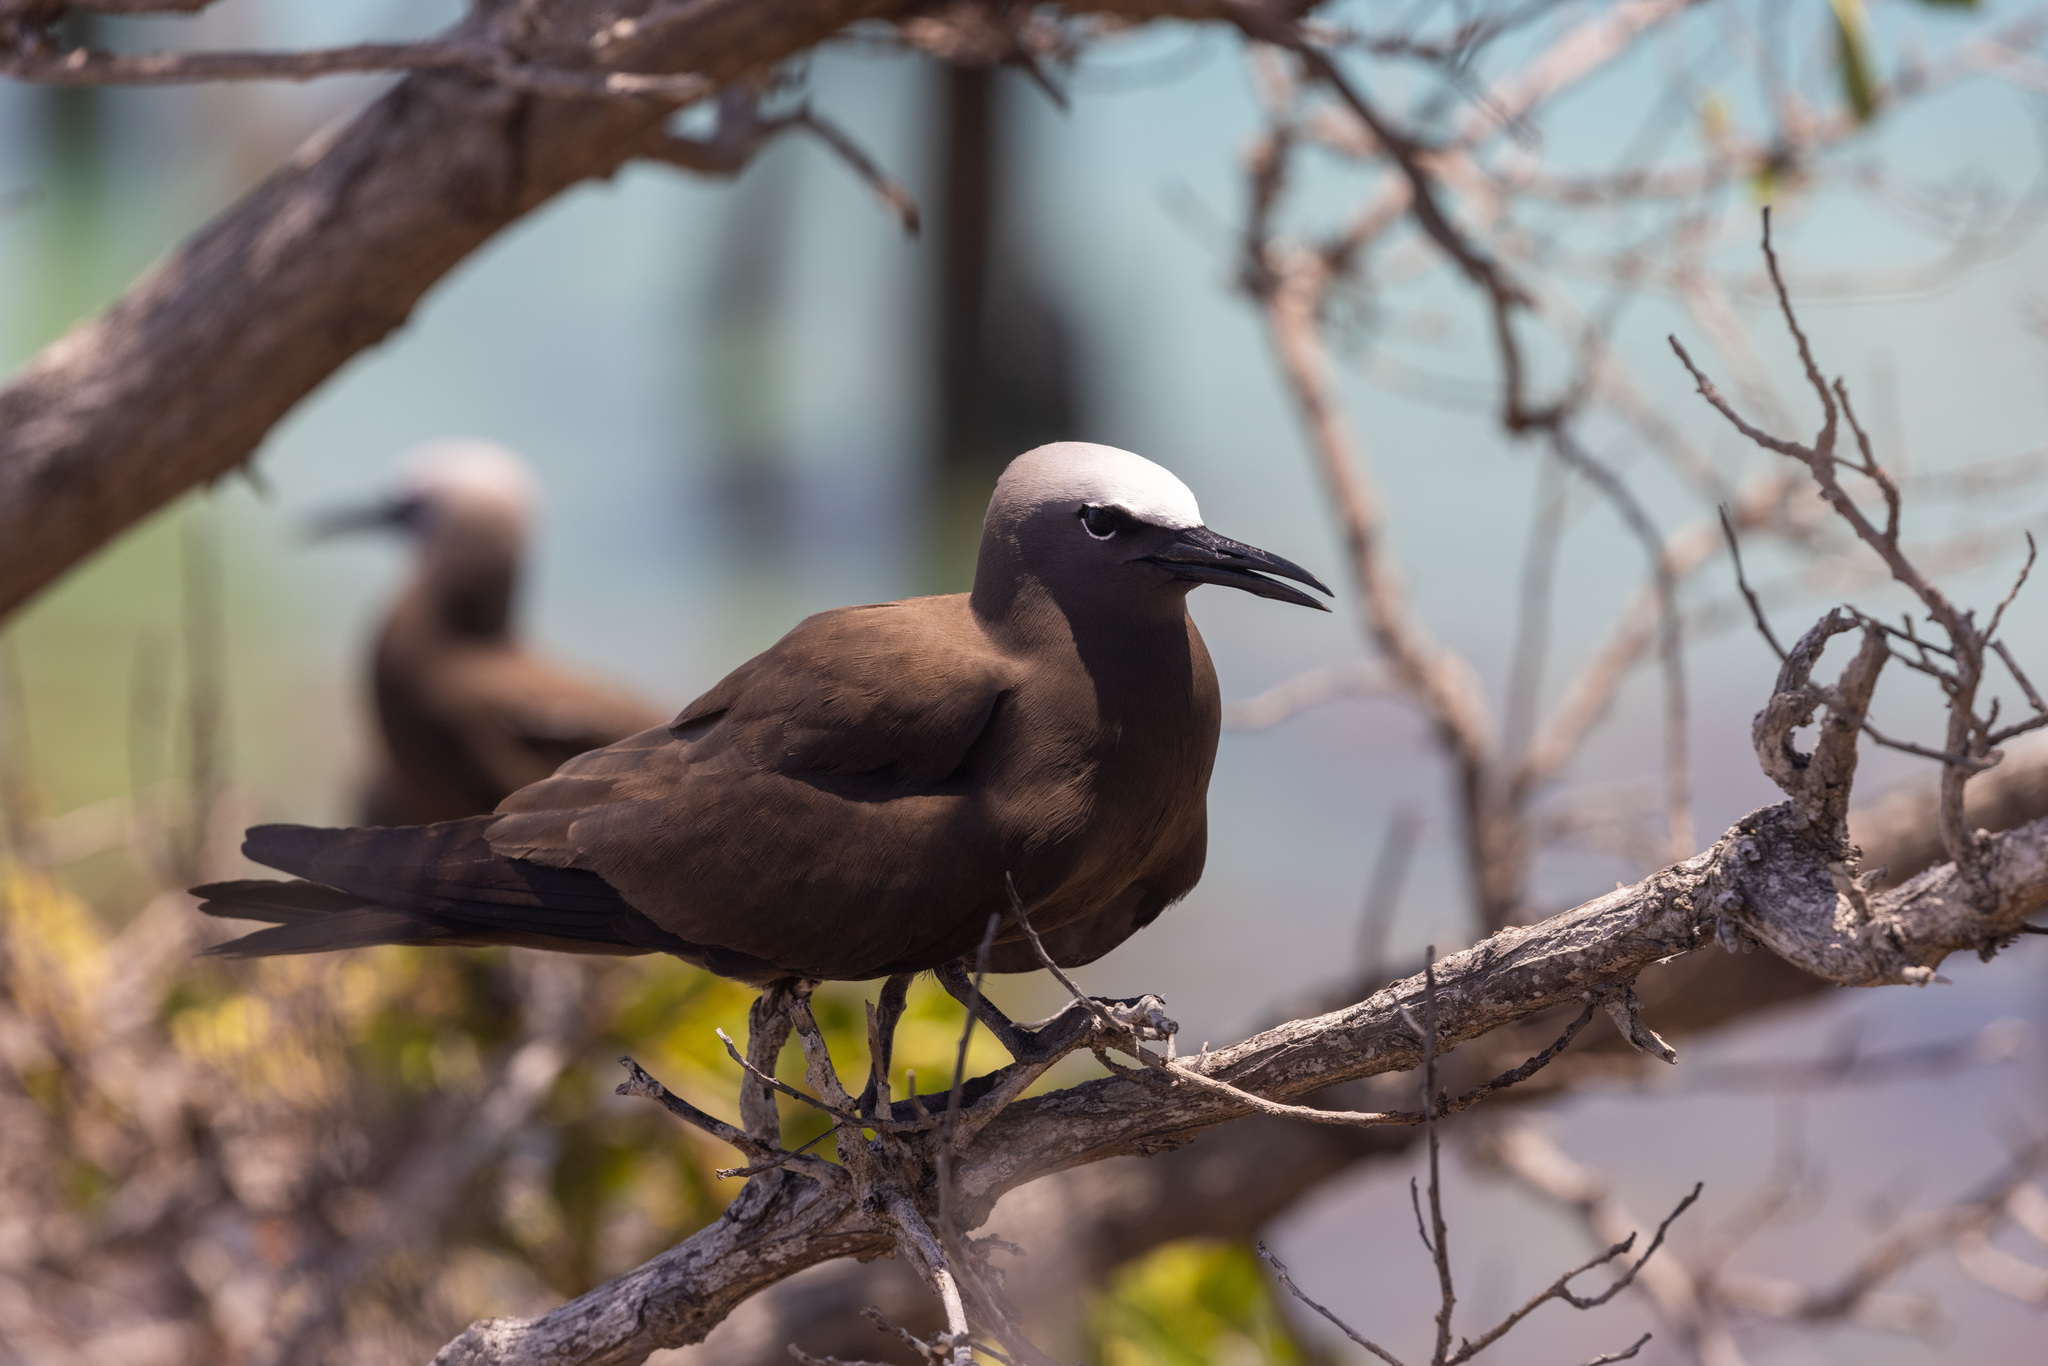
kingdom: Animalia
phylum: Chordata
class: Aves
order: Charadriiformes
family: Laridae
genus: Anous
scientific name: Anous stolidus
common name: Brown noddy
